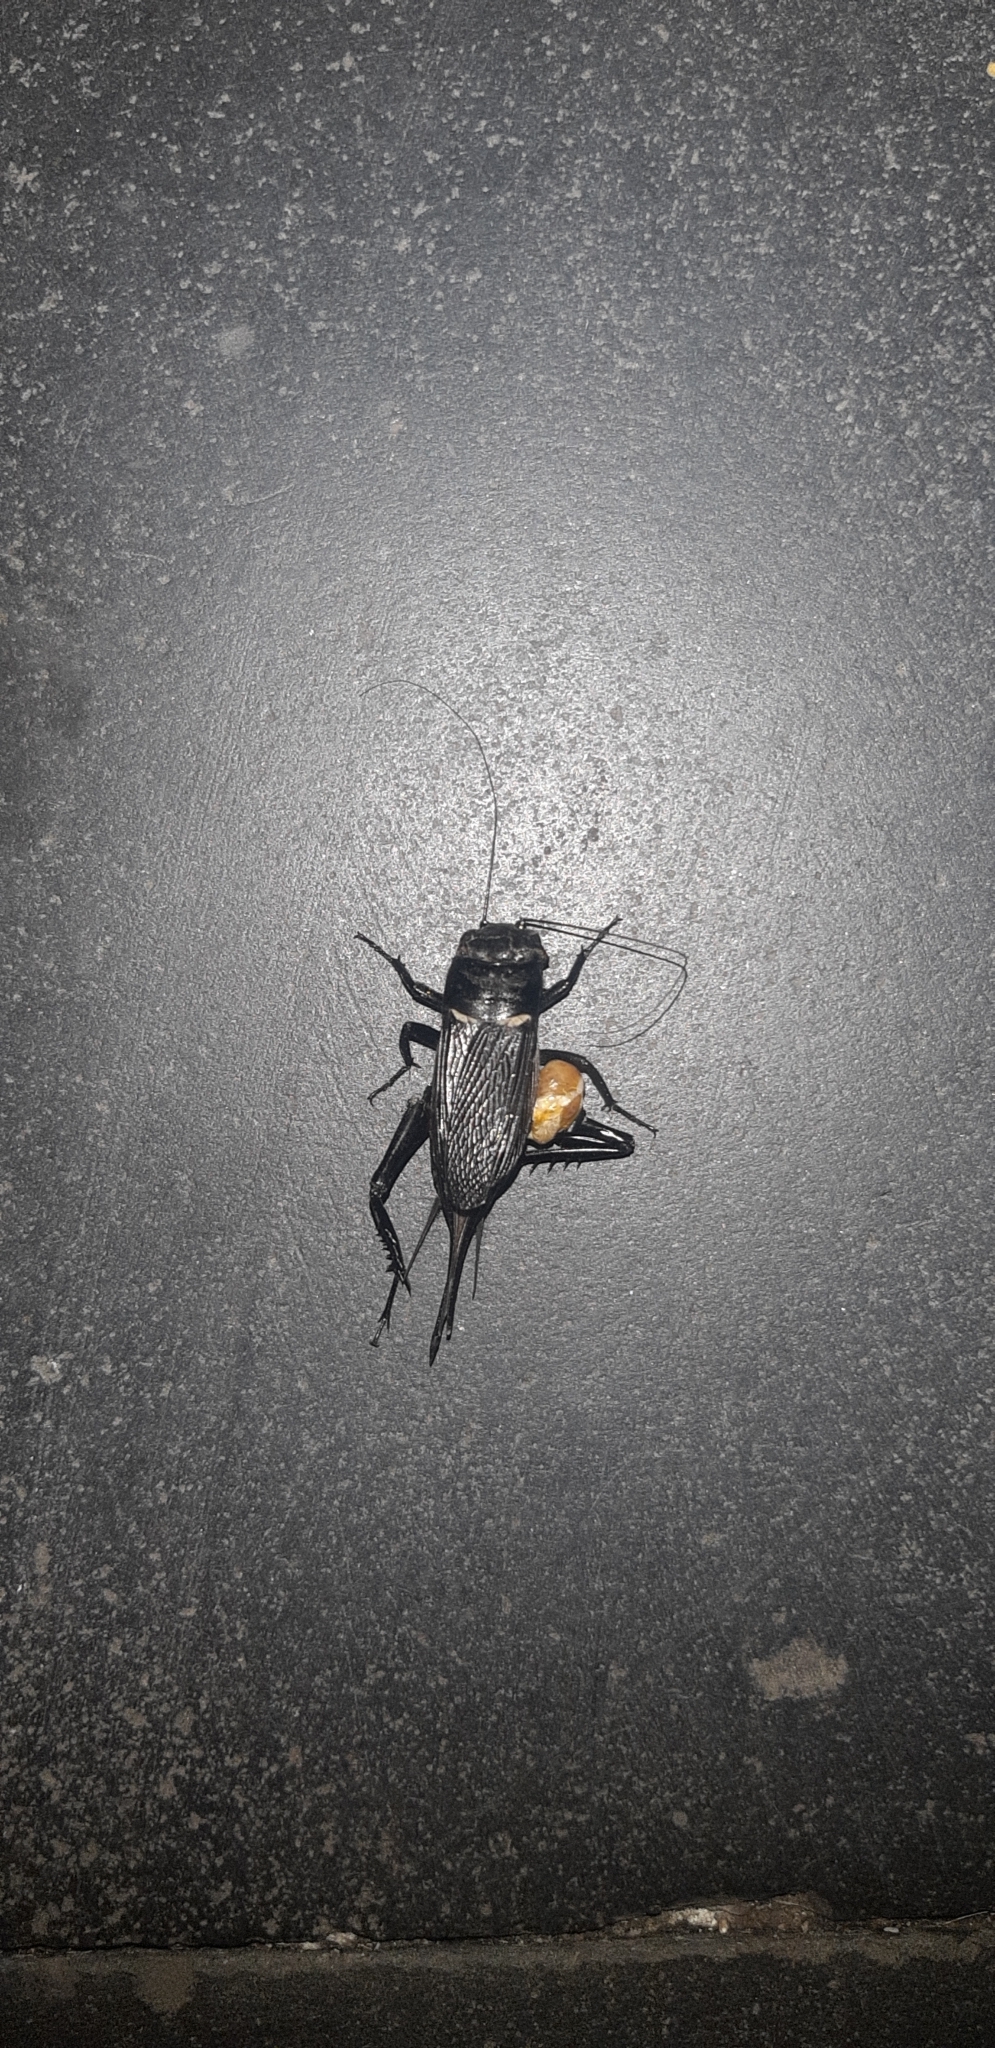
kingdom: Animalia
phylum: Arthropoda
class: Insecta
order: Orthoptera
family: Gryllidae
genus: Gryllus
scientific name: Gryllus bimaculatus
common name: Two-spotted cricket
